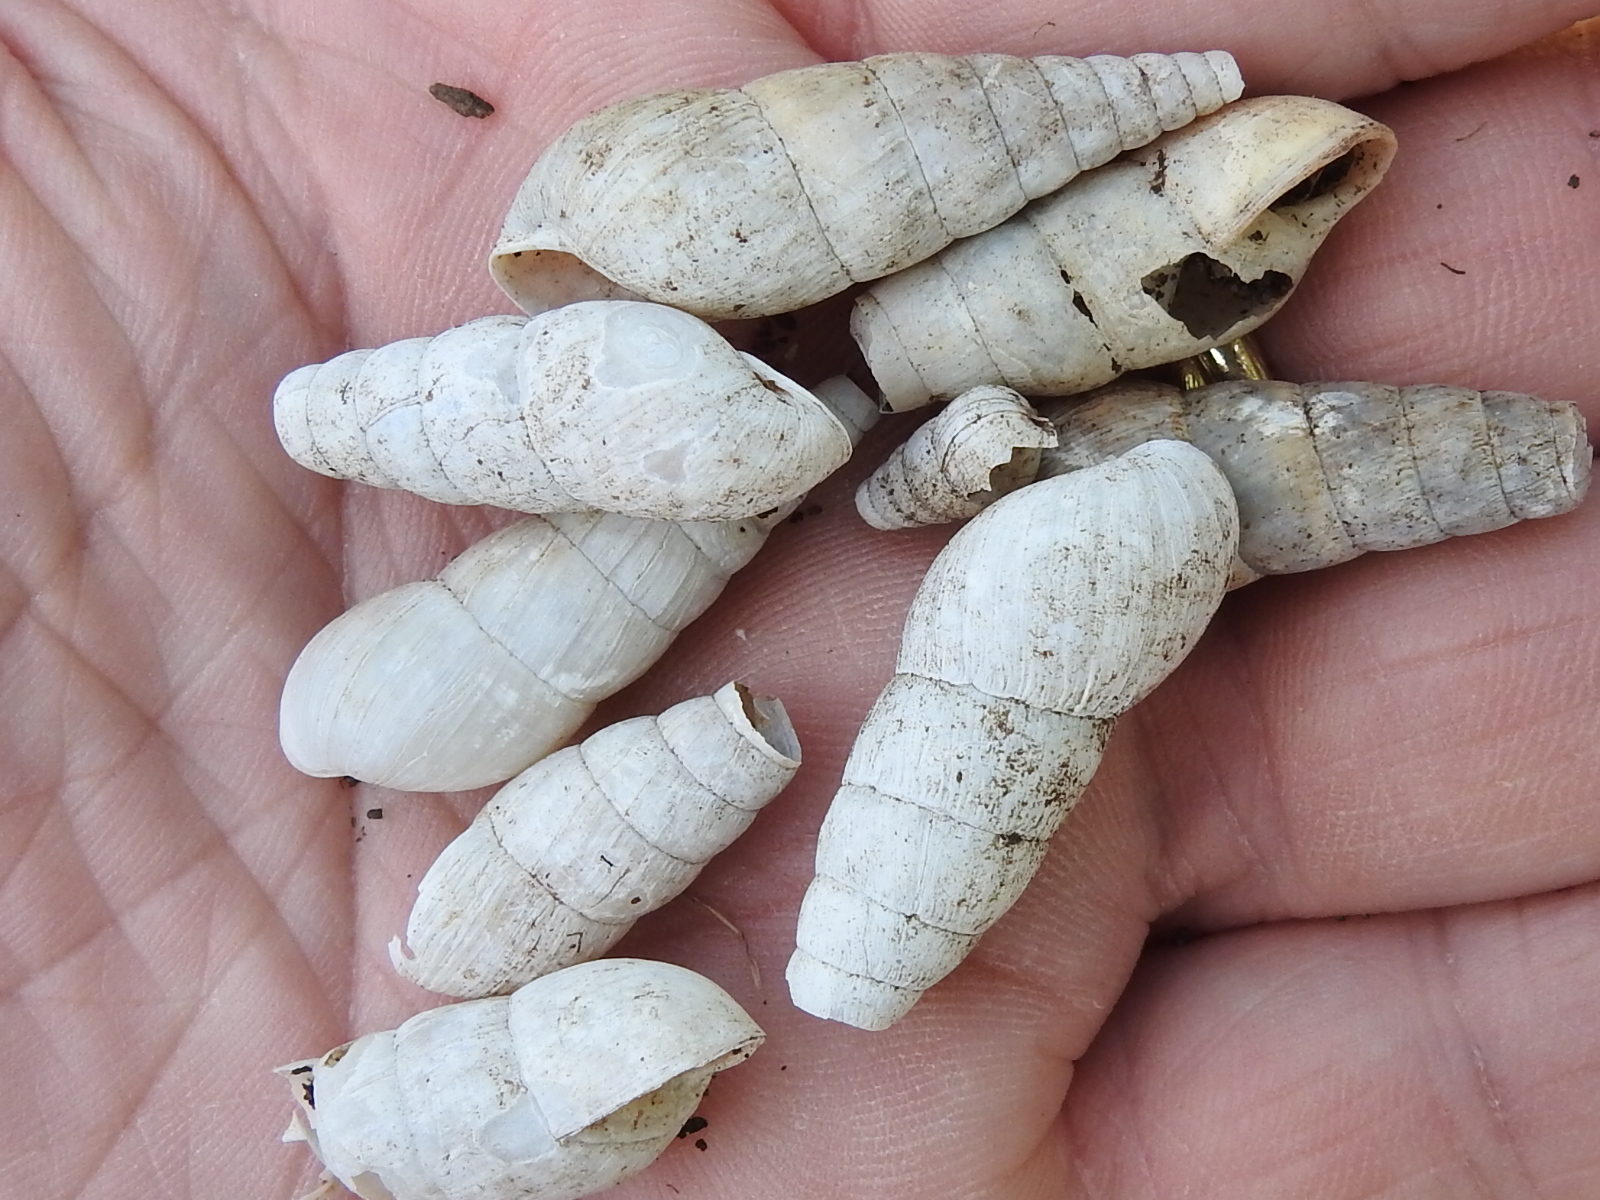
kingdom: Animalia
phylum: Mollusca
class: Gastropoda
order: Stylommatophora
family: Achatinidae
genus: Rumina
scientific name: Rumina decollata
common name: Decollate snail
